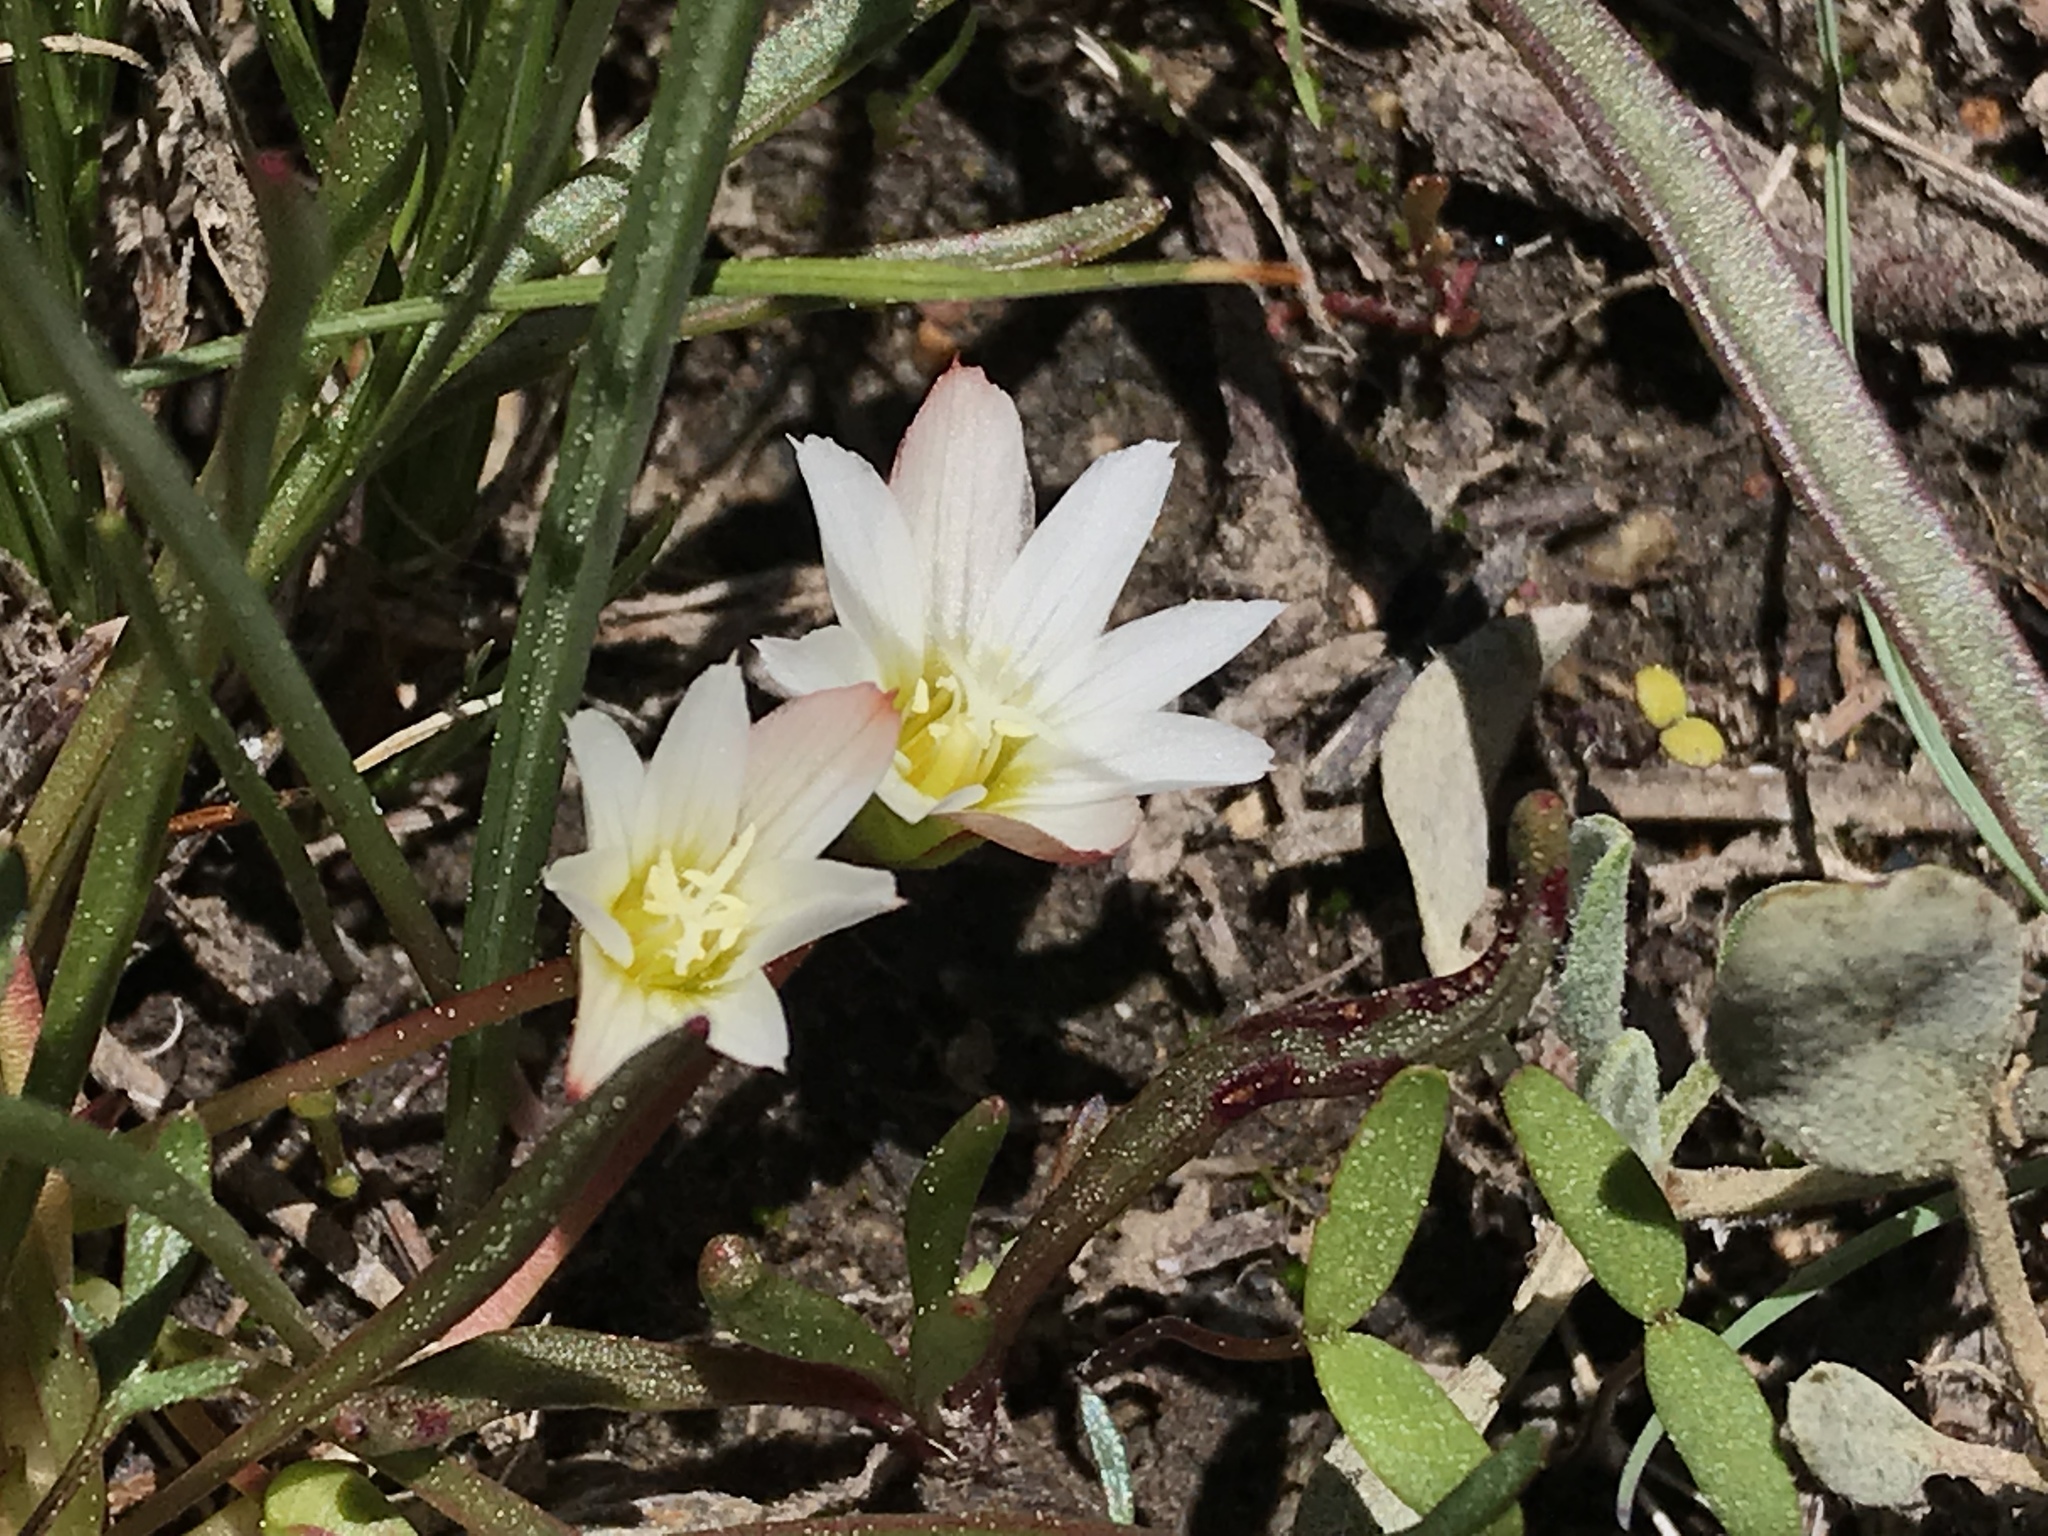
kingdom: Plantae
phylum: Tracheophyta
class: Magnoliopsida
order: Caryophyllales
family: Montiaceae
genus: Lewisia
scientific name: Lewisia nevadensis
